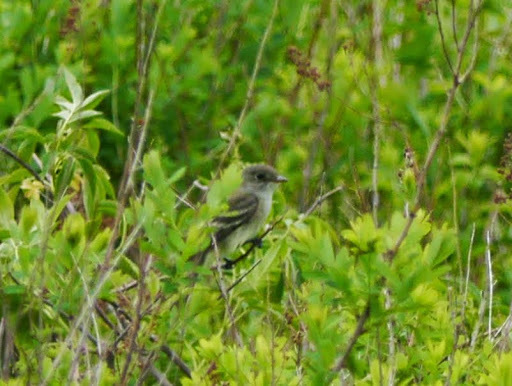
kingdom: Animalia
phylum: Chordata
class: Aves
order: Passeriformes
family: Tyrannidae
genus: Empidonax
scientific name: Empidonax
